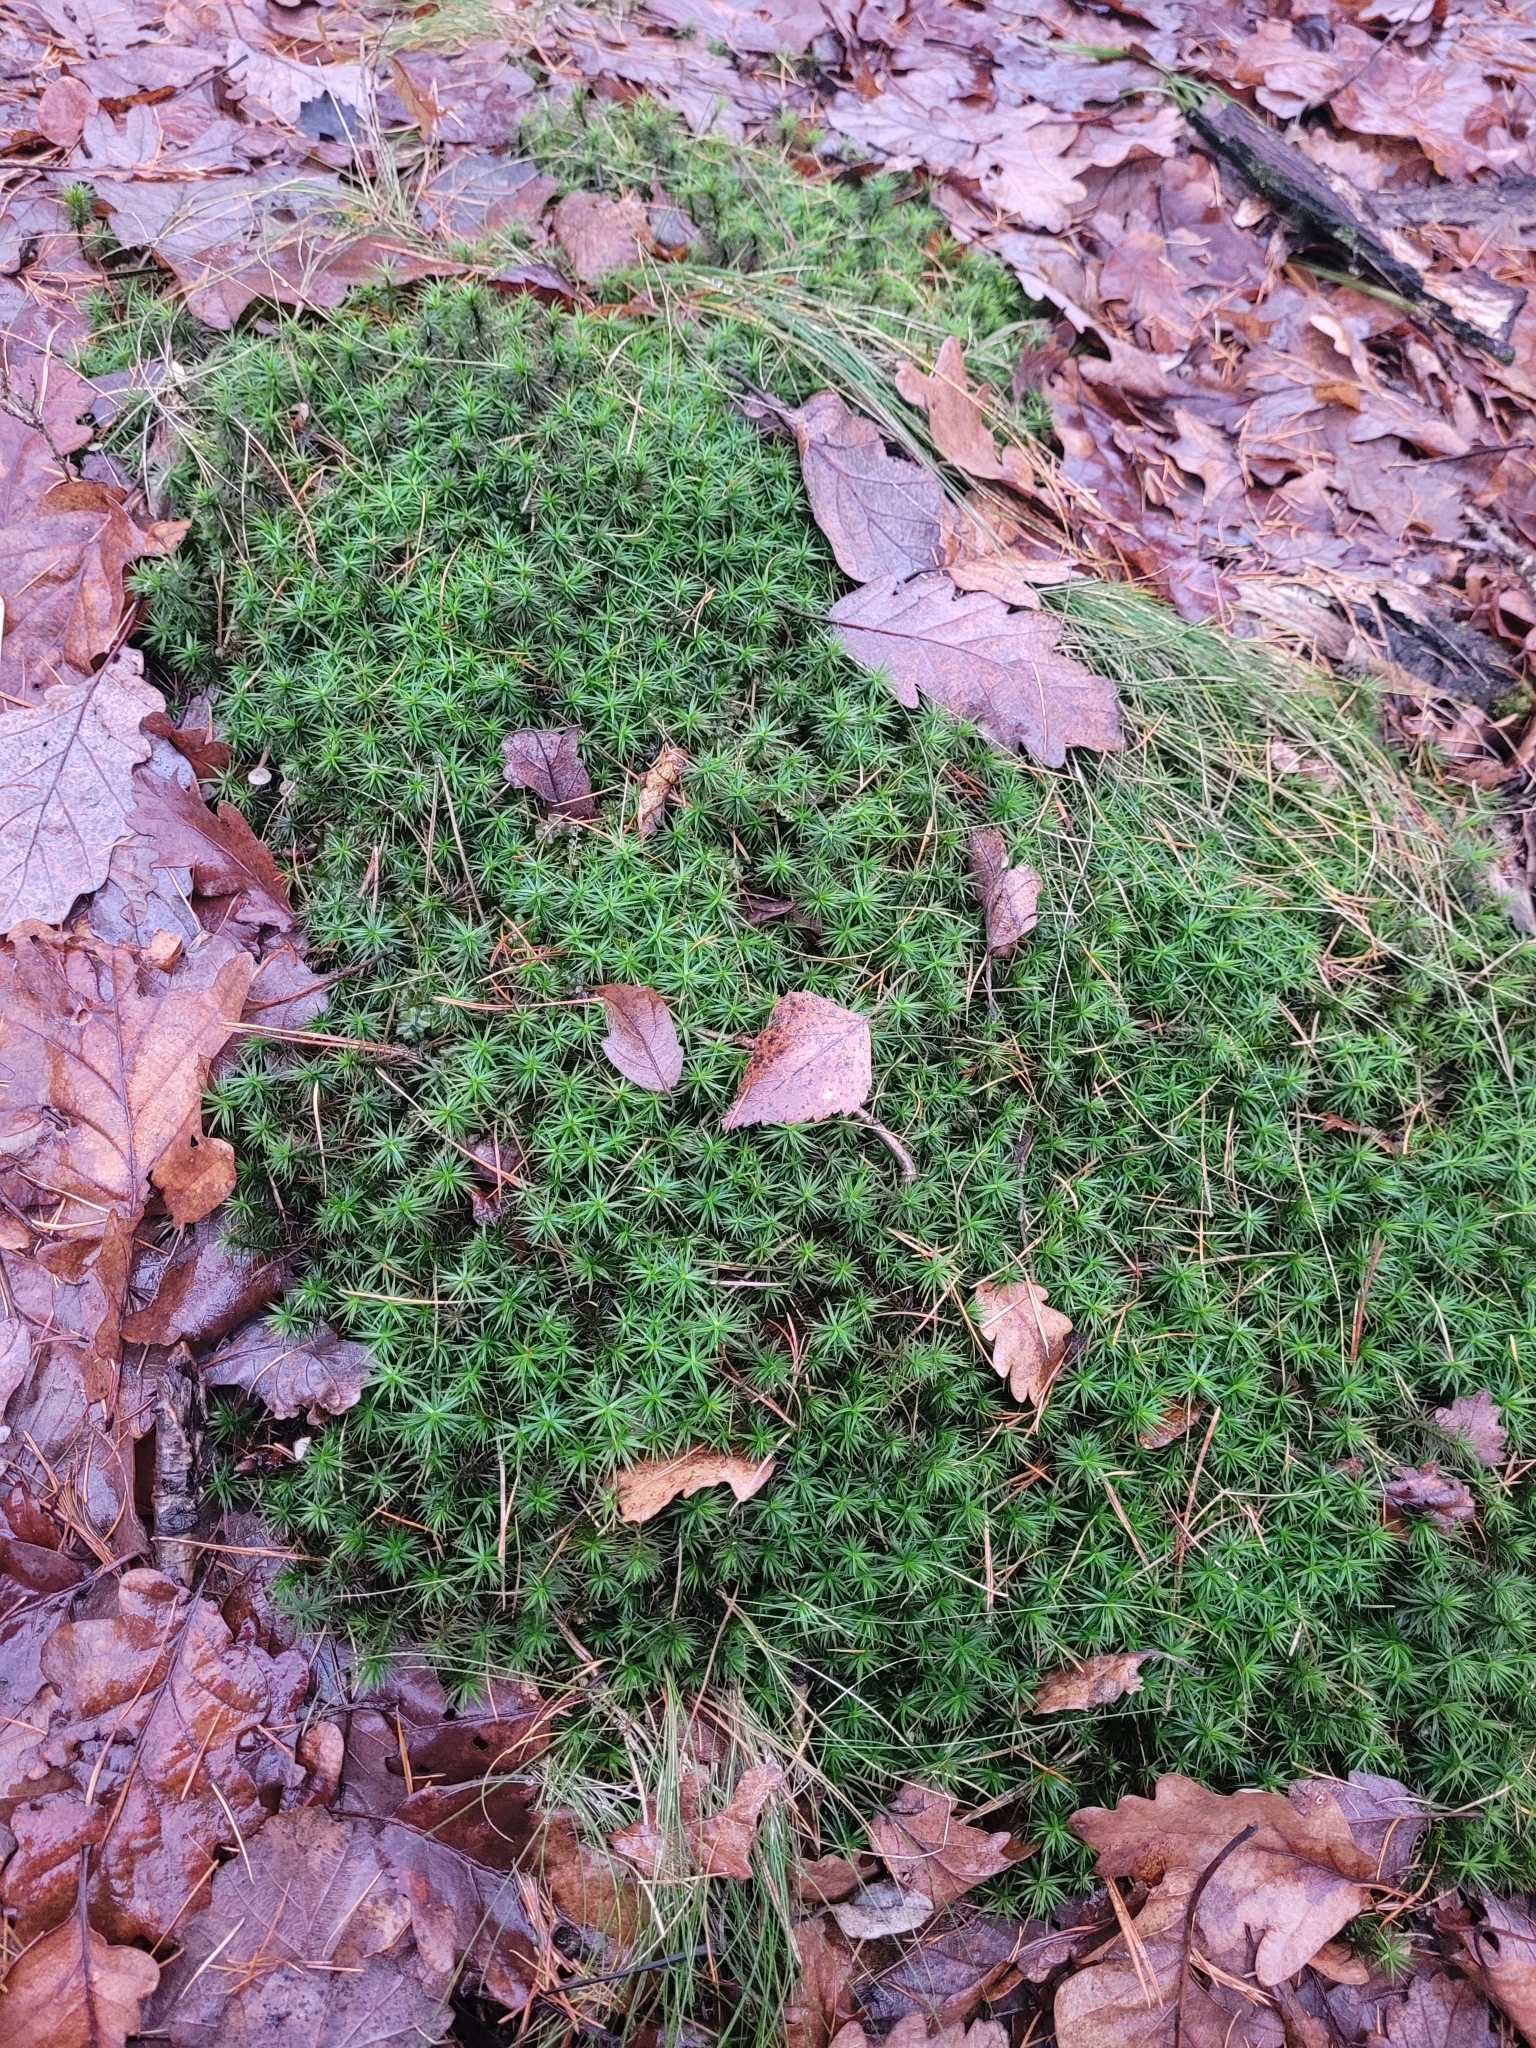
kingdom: Plantae
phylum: Bryophyta
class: Polytrichopsida
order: Polytrichales
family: Polytrichaceae
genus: Polytrichum
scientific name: Polytrichum formosum
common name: Bank haircap moss
